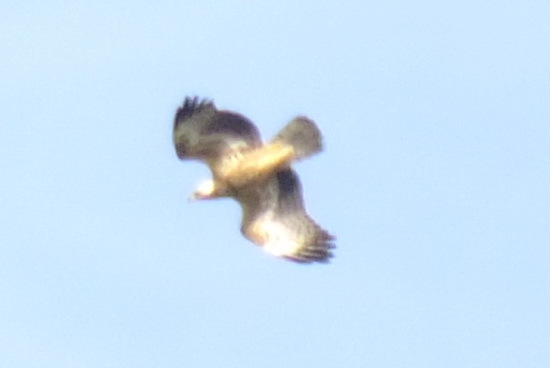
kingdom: Animalia
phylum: Chordata
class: Aves
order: Accipitriformes
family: Accipitridae
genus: Pernis
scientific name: Pernis apivorus
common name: European honey buzzard
